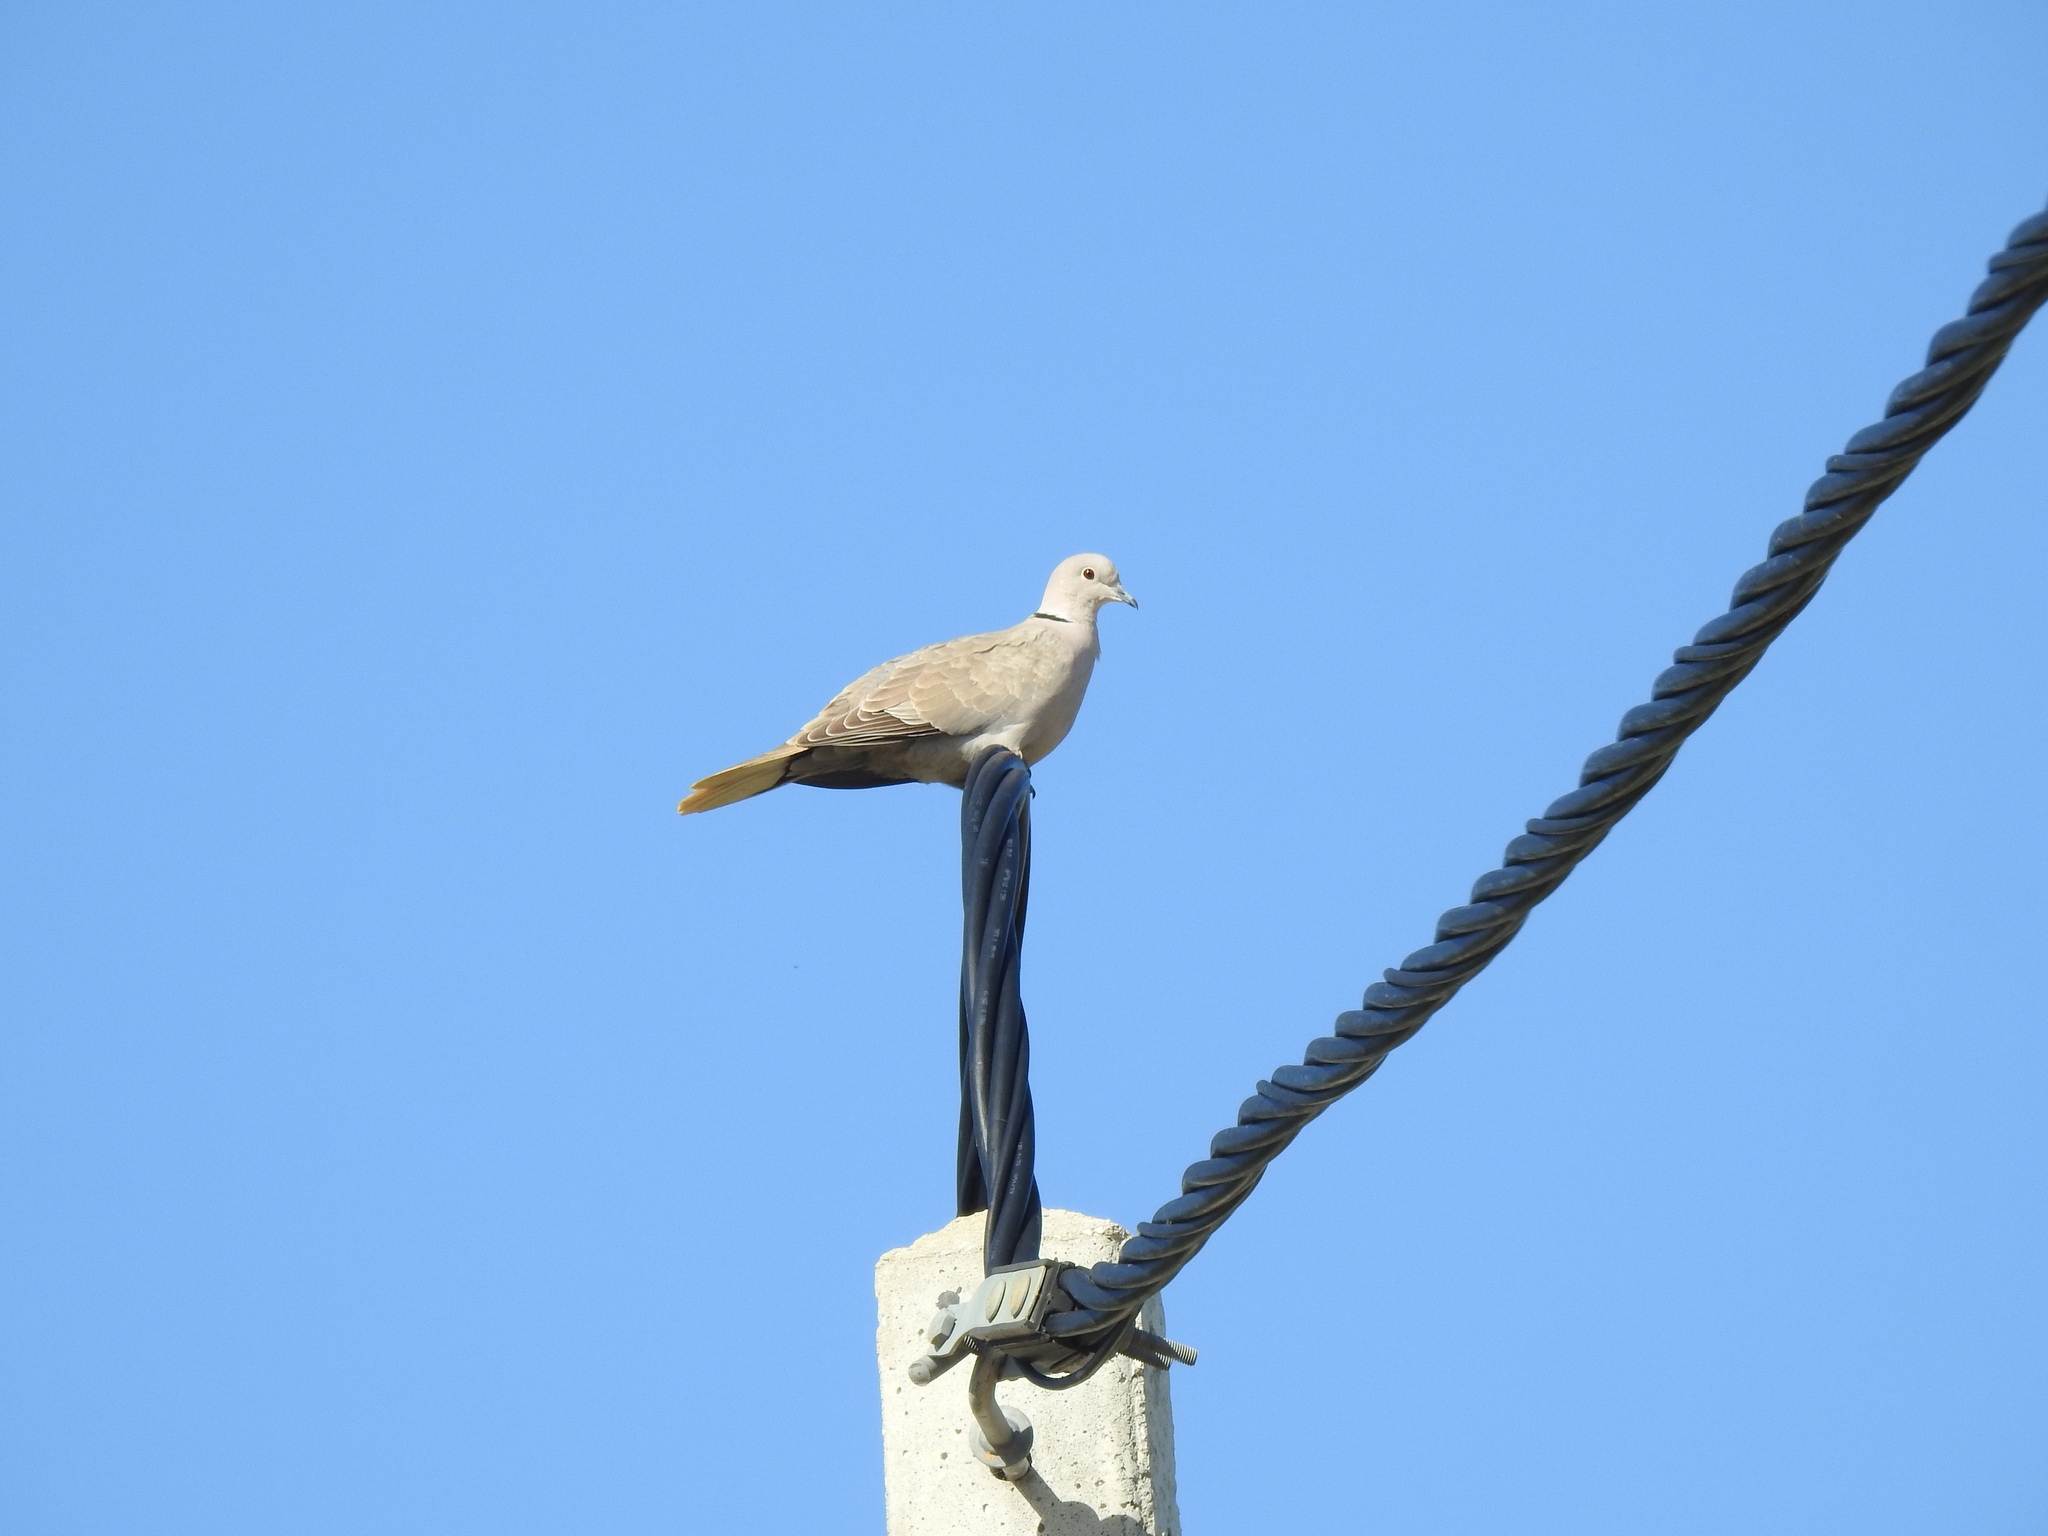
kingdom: Animalia
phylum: Chordata
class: Aves
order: Columbiformes
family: Columbidae
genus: Streptopelia
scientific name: Streptopelia decaocto
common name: Eurasian collared dove
